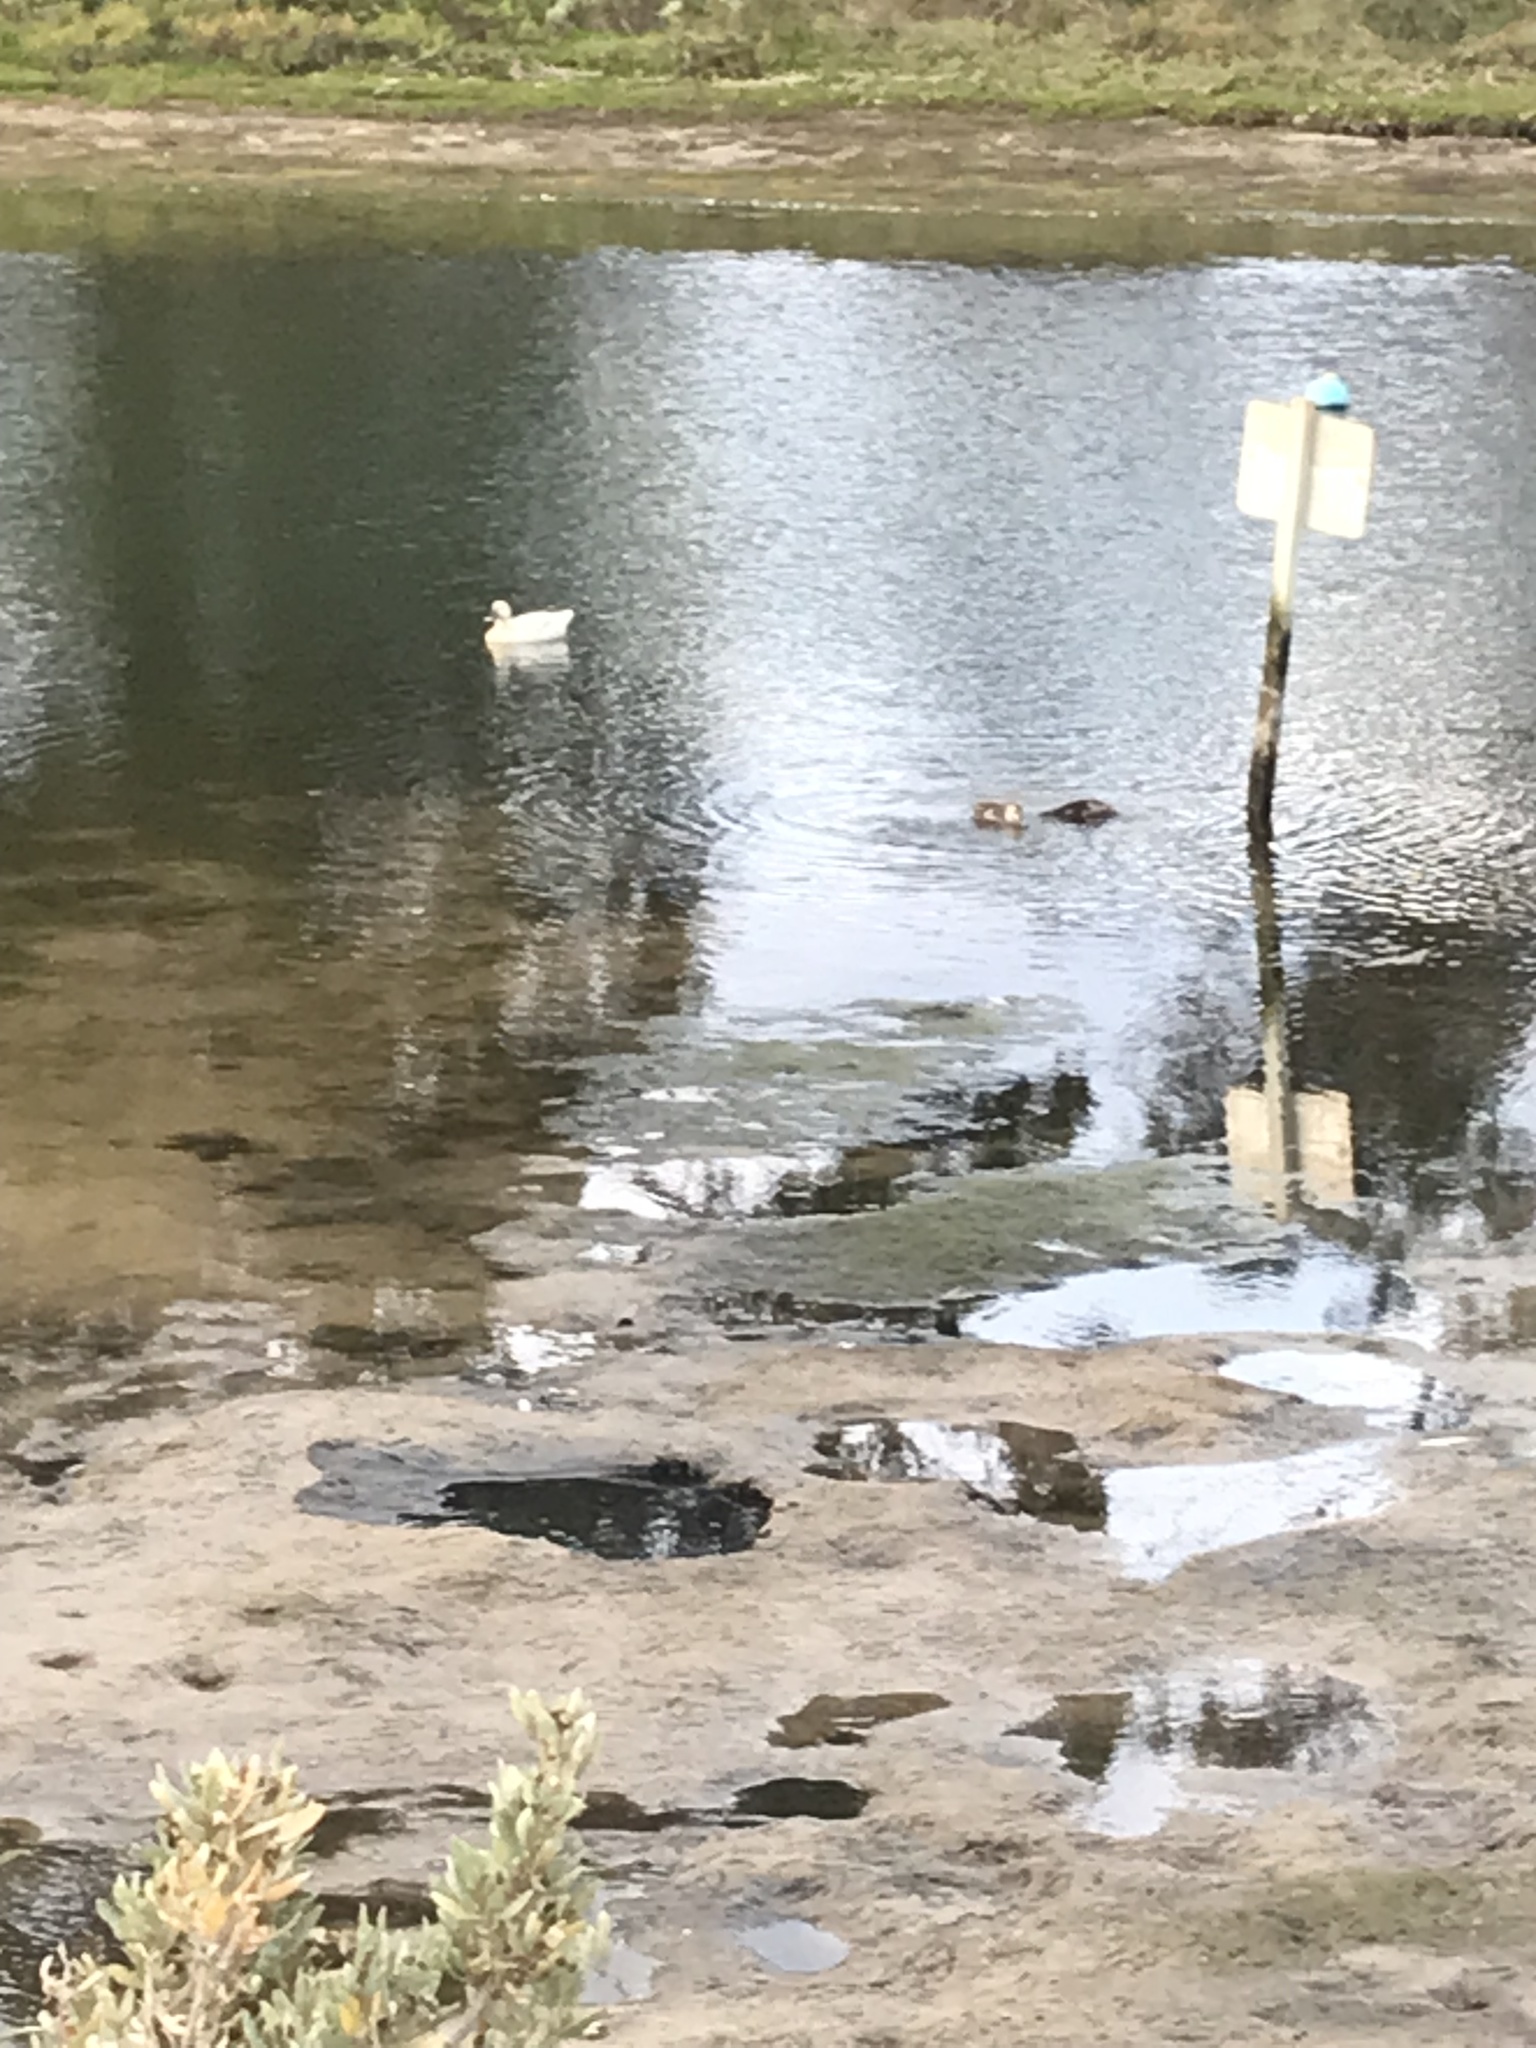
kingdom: Animalia
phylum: Chordata
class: Aves
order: Anseriformes
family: Anatidae
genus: Anas
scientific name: Anas platyrhynchos
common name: Mallard
